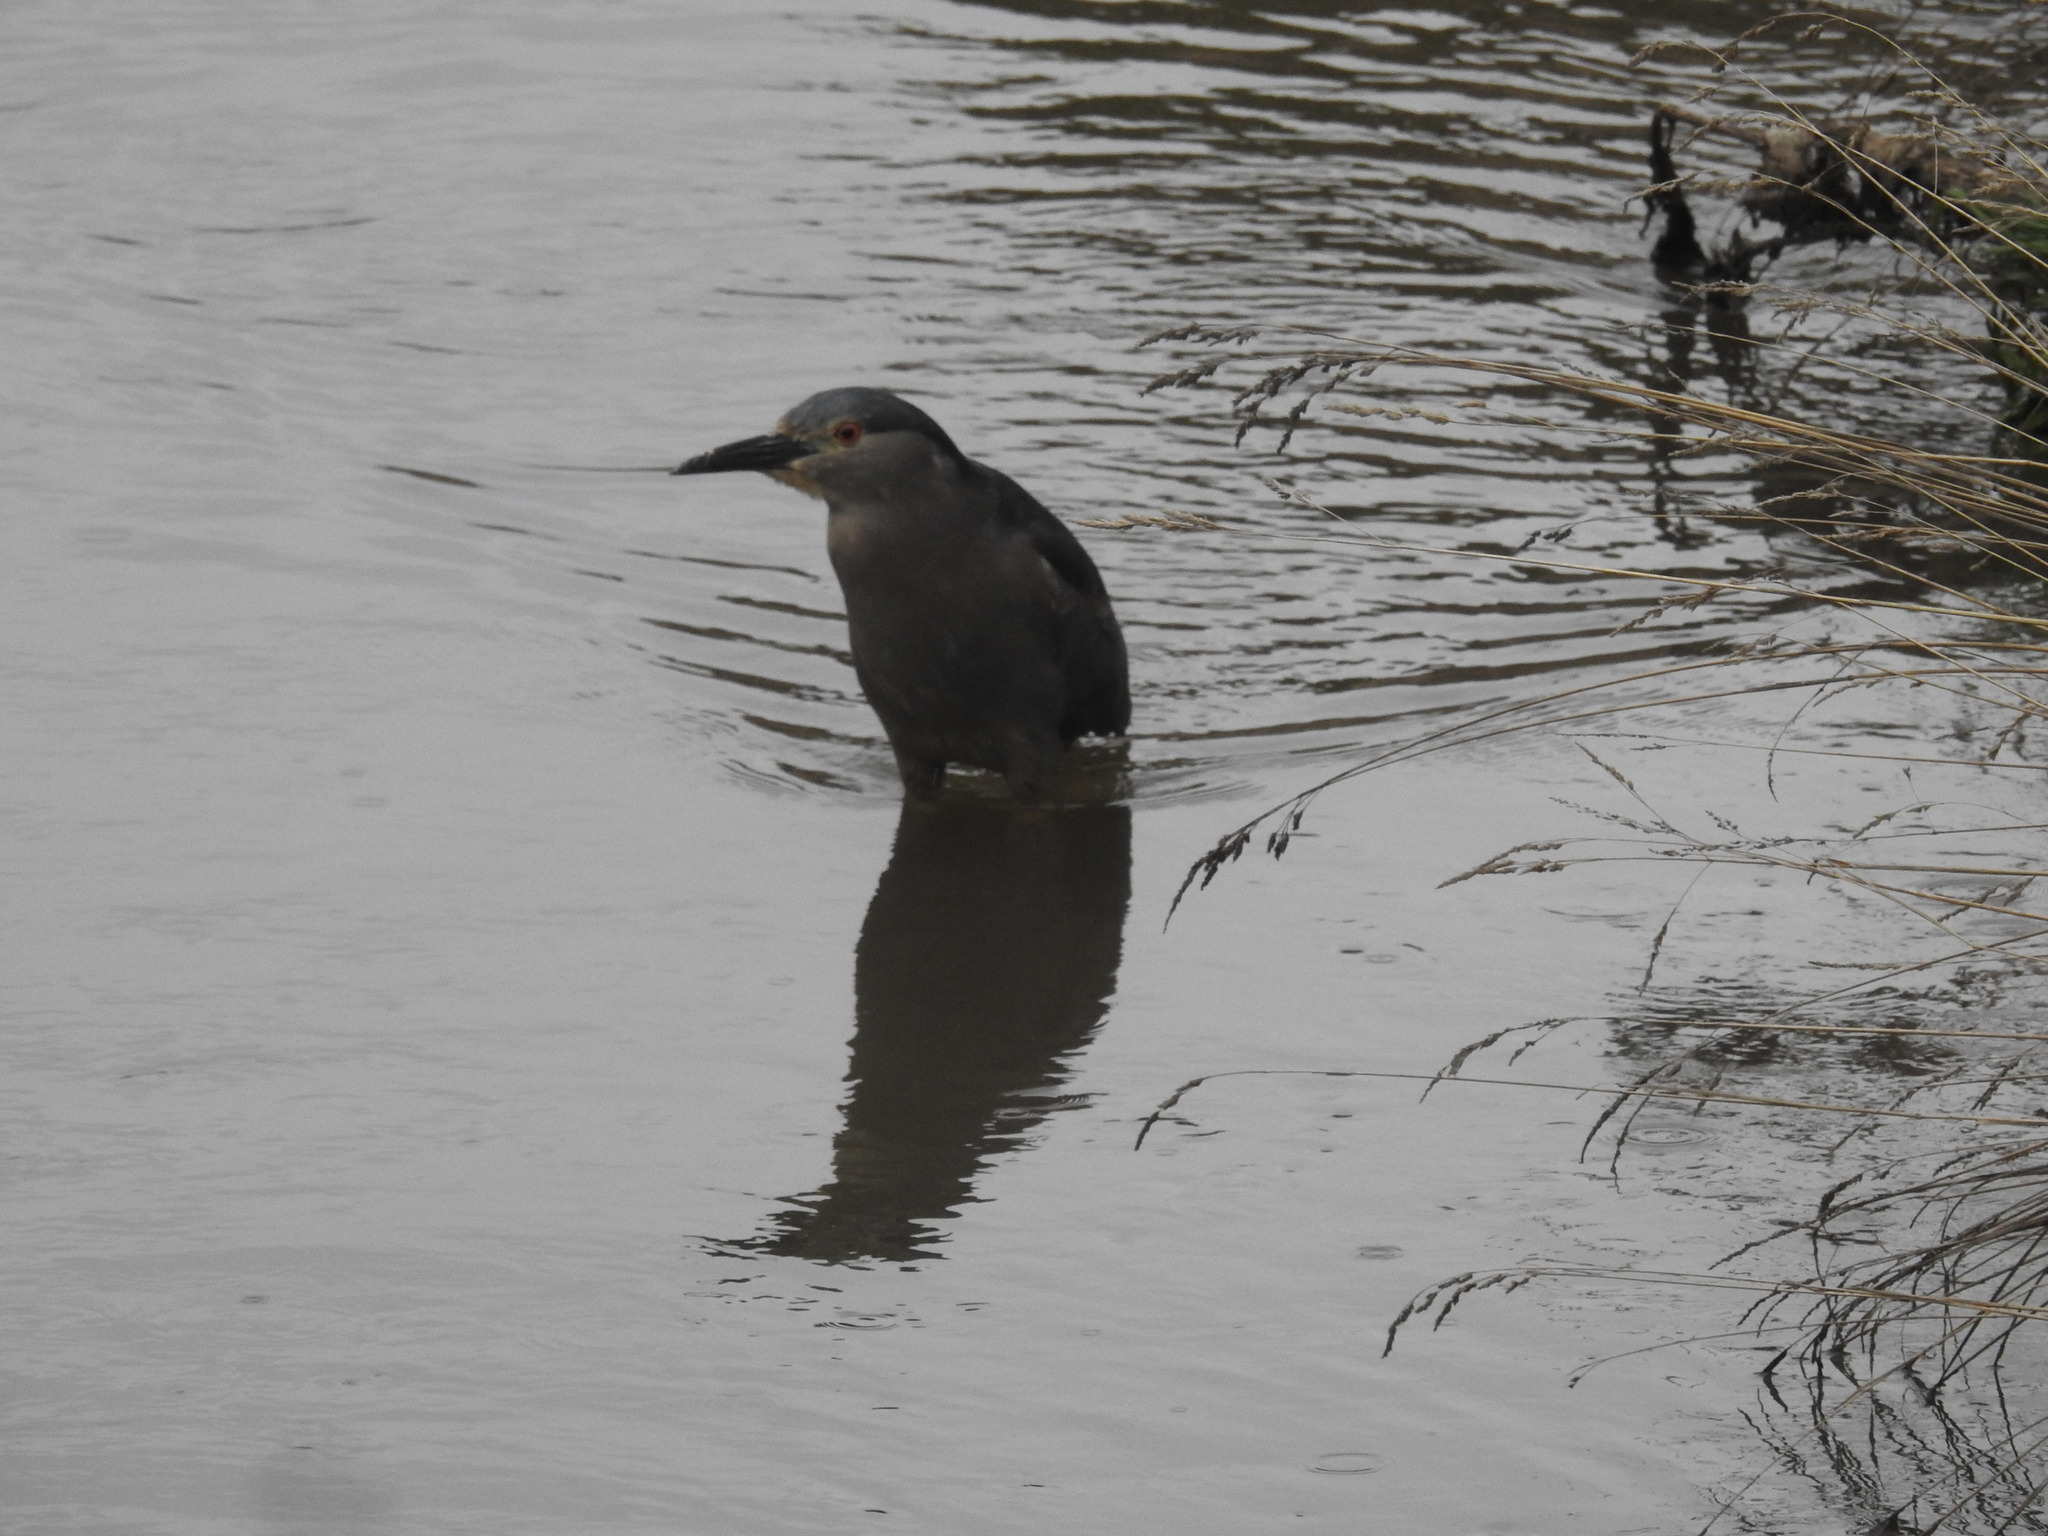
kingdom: Animalia
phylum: Chordata
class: Aves
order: Pelecaniformes
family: Ardeidae
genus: Nycticorax
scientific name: Nycticorax nycticorax
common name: Black-crowned night heron
